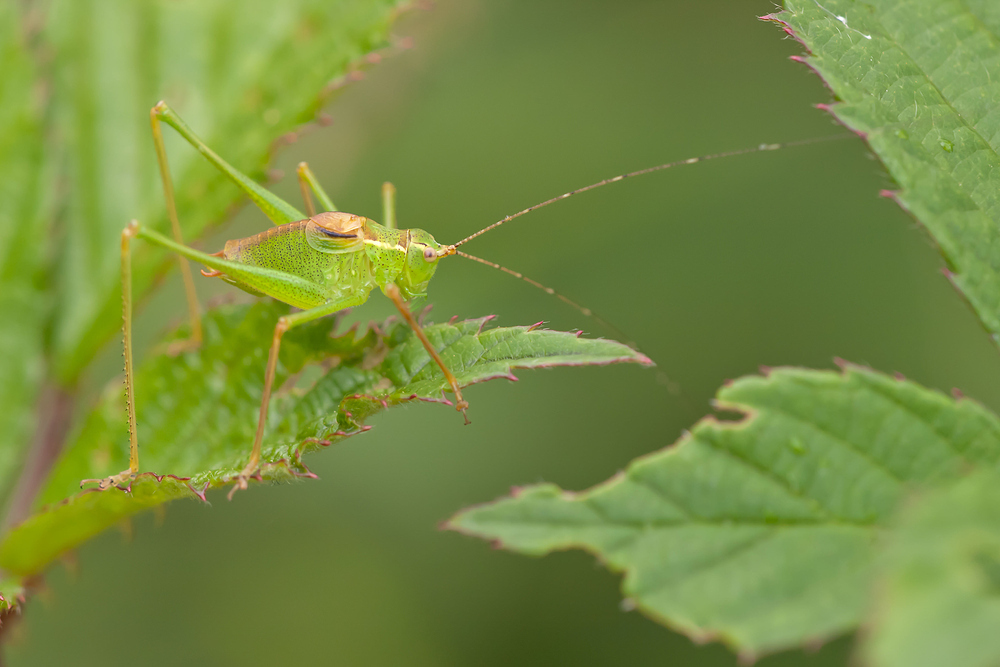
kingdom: Animalia
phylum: Arthropoda
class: Insecta
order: Orthoptera
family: Tettigoniidae
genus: Leptophyes
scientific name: Leptophyes punctatissima
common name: Speckled bush-cricket
